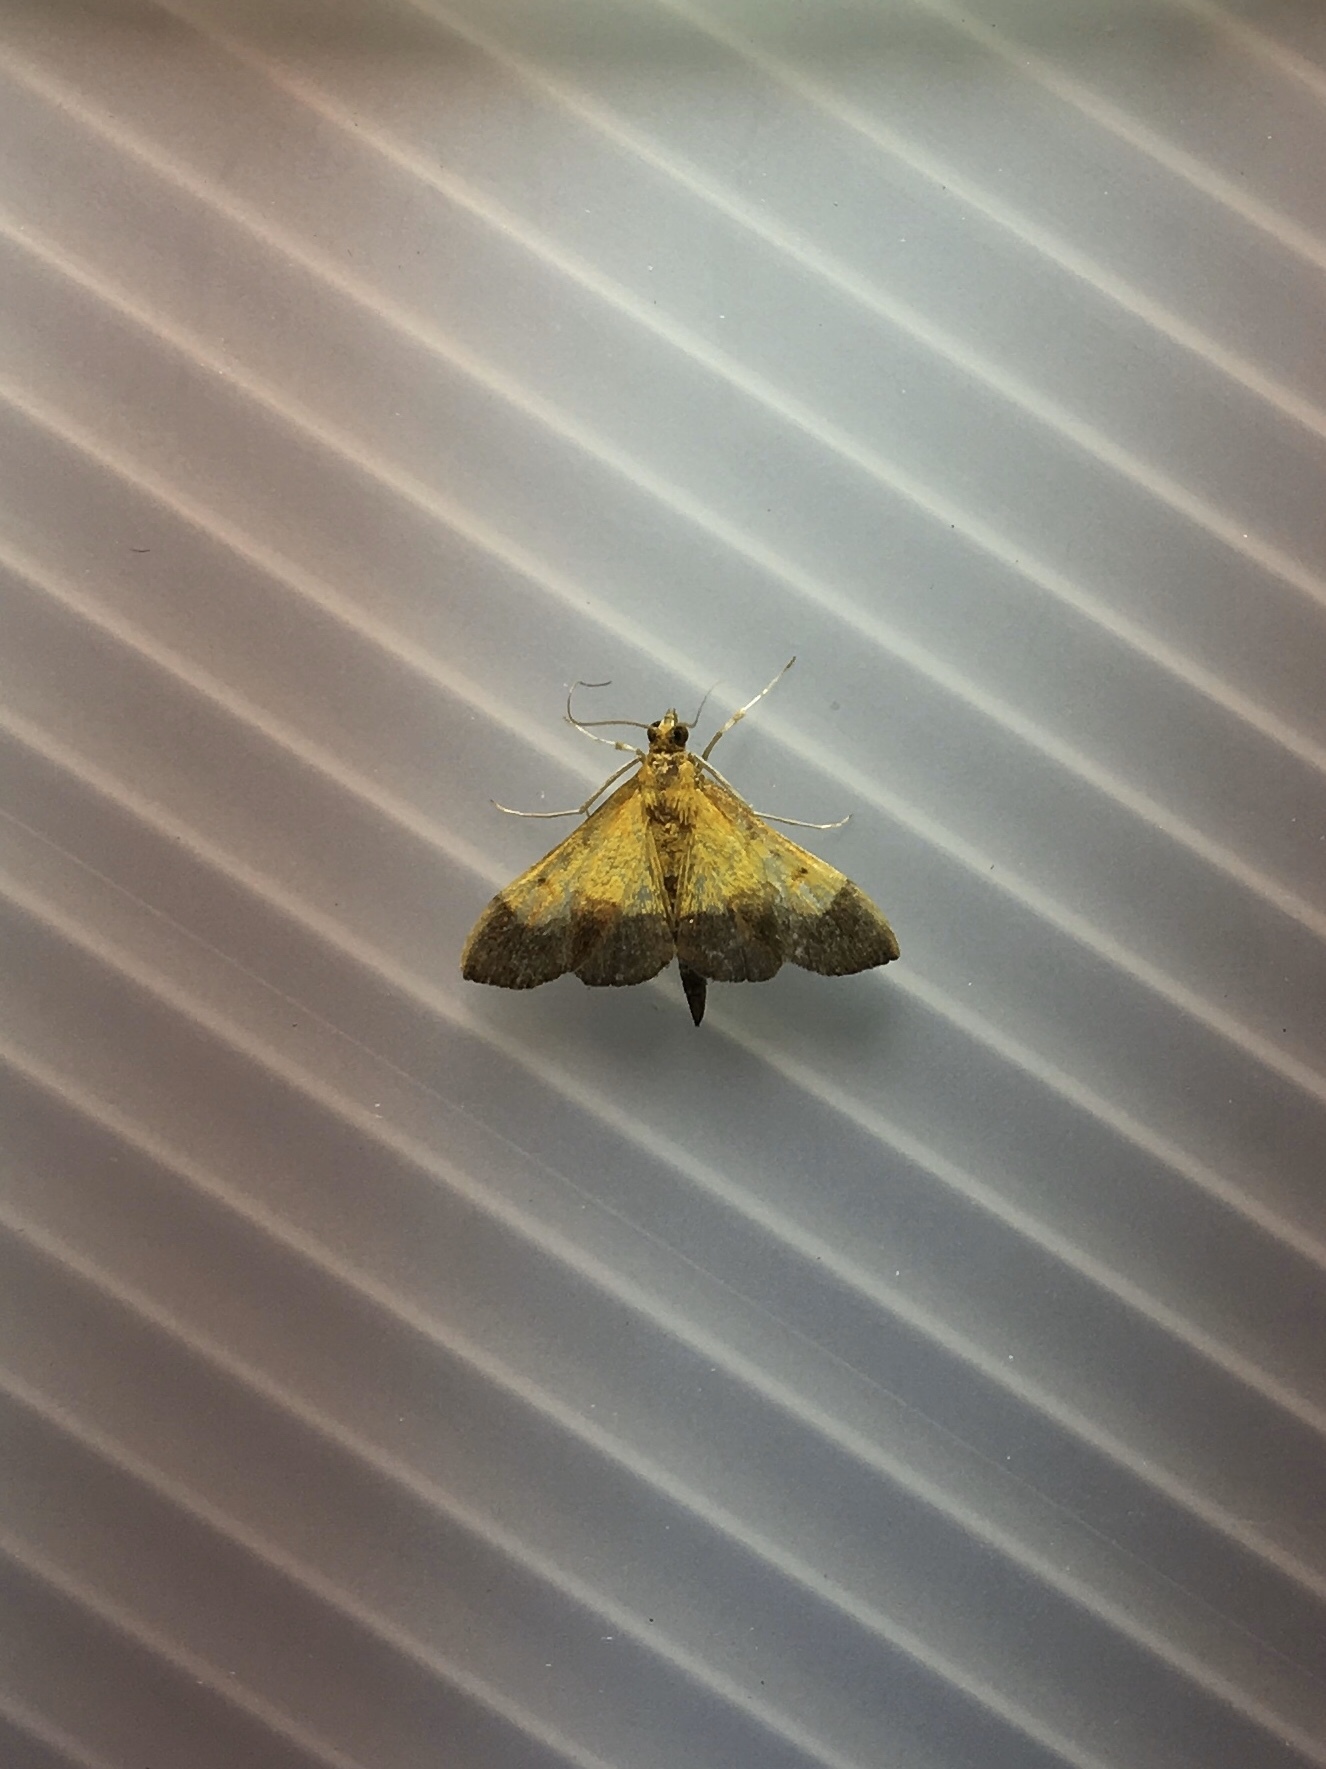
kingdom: Animalia
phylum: Arthropoda
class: Insecta
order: Lepidoptera
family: Crambidae
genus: Pyrausta
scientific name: Pyrausta bicoloralis
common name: Bicolored pyrausta moth
